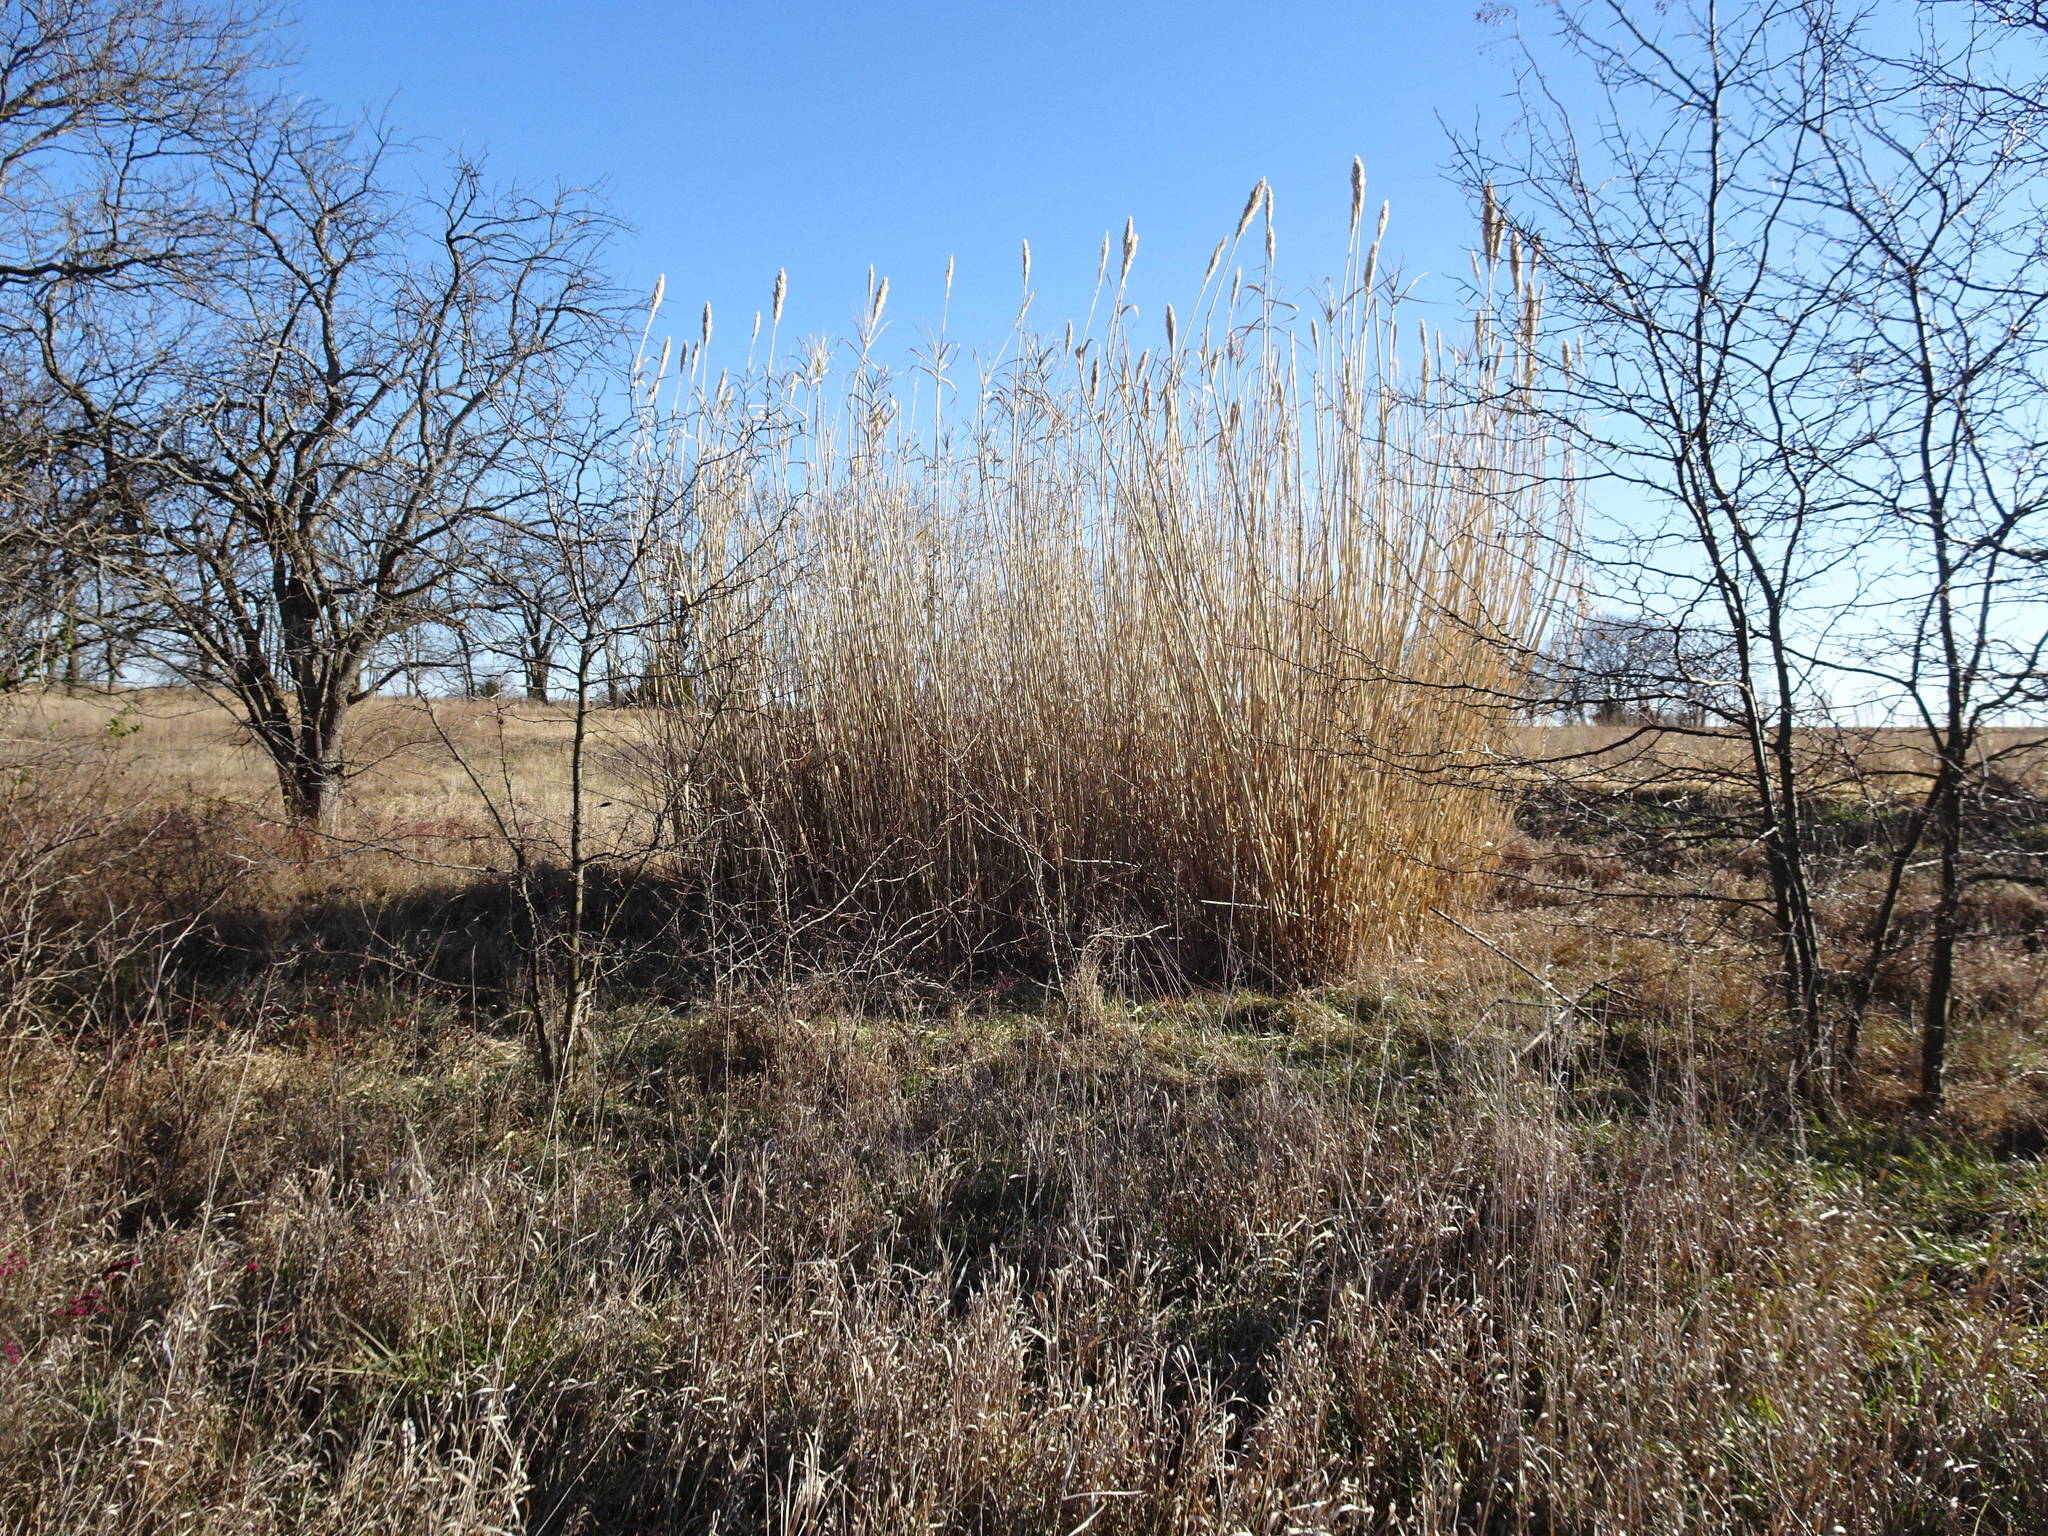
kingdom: Plantae
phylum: Tracheophyta
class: Liliopsida
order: Poales
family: Poaceae
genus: Arundo
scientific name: Arundo donax
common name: Giant reed
